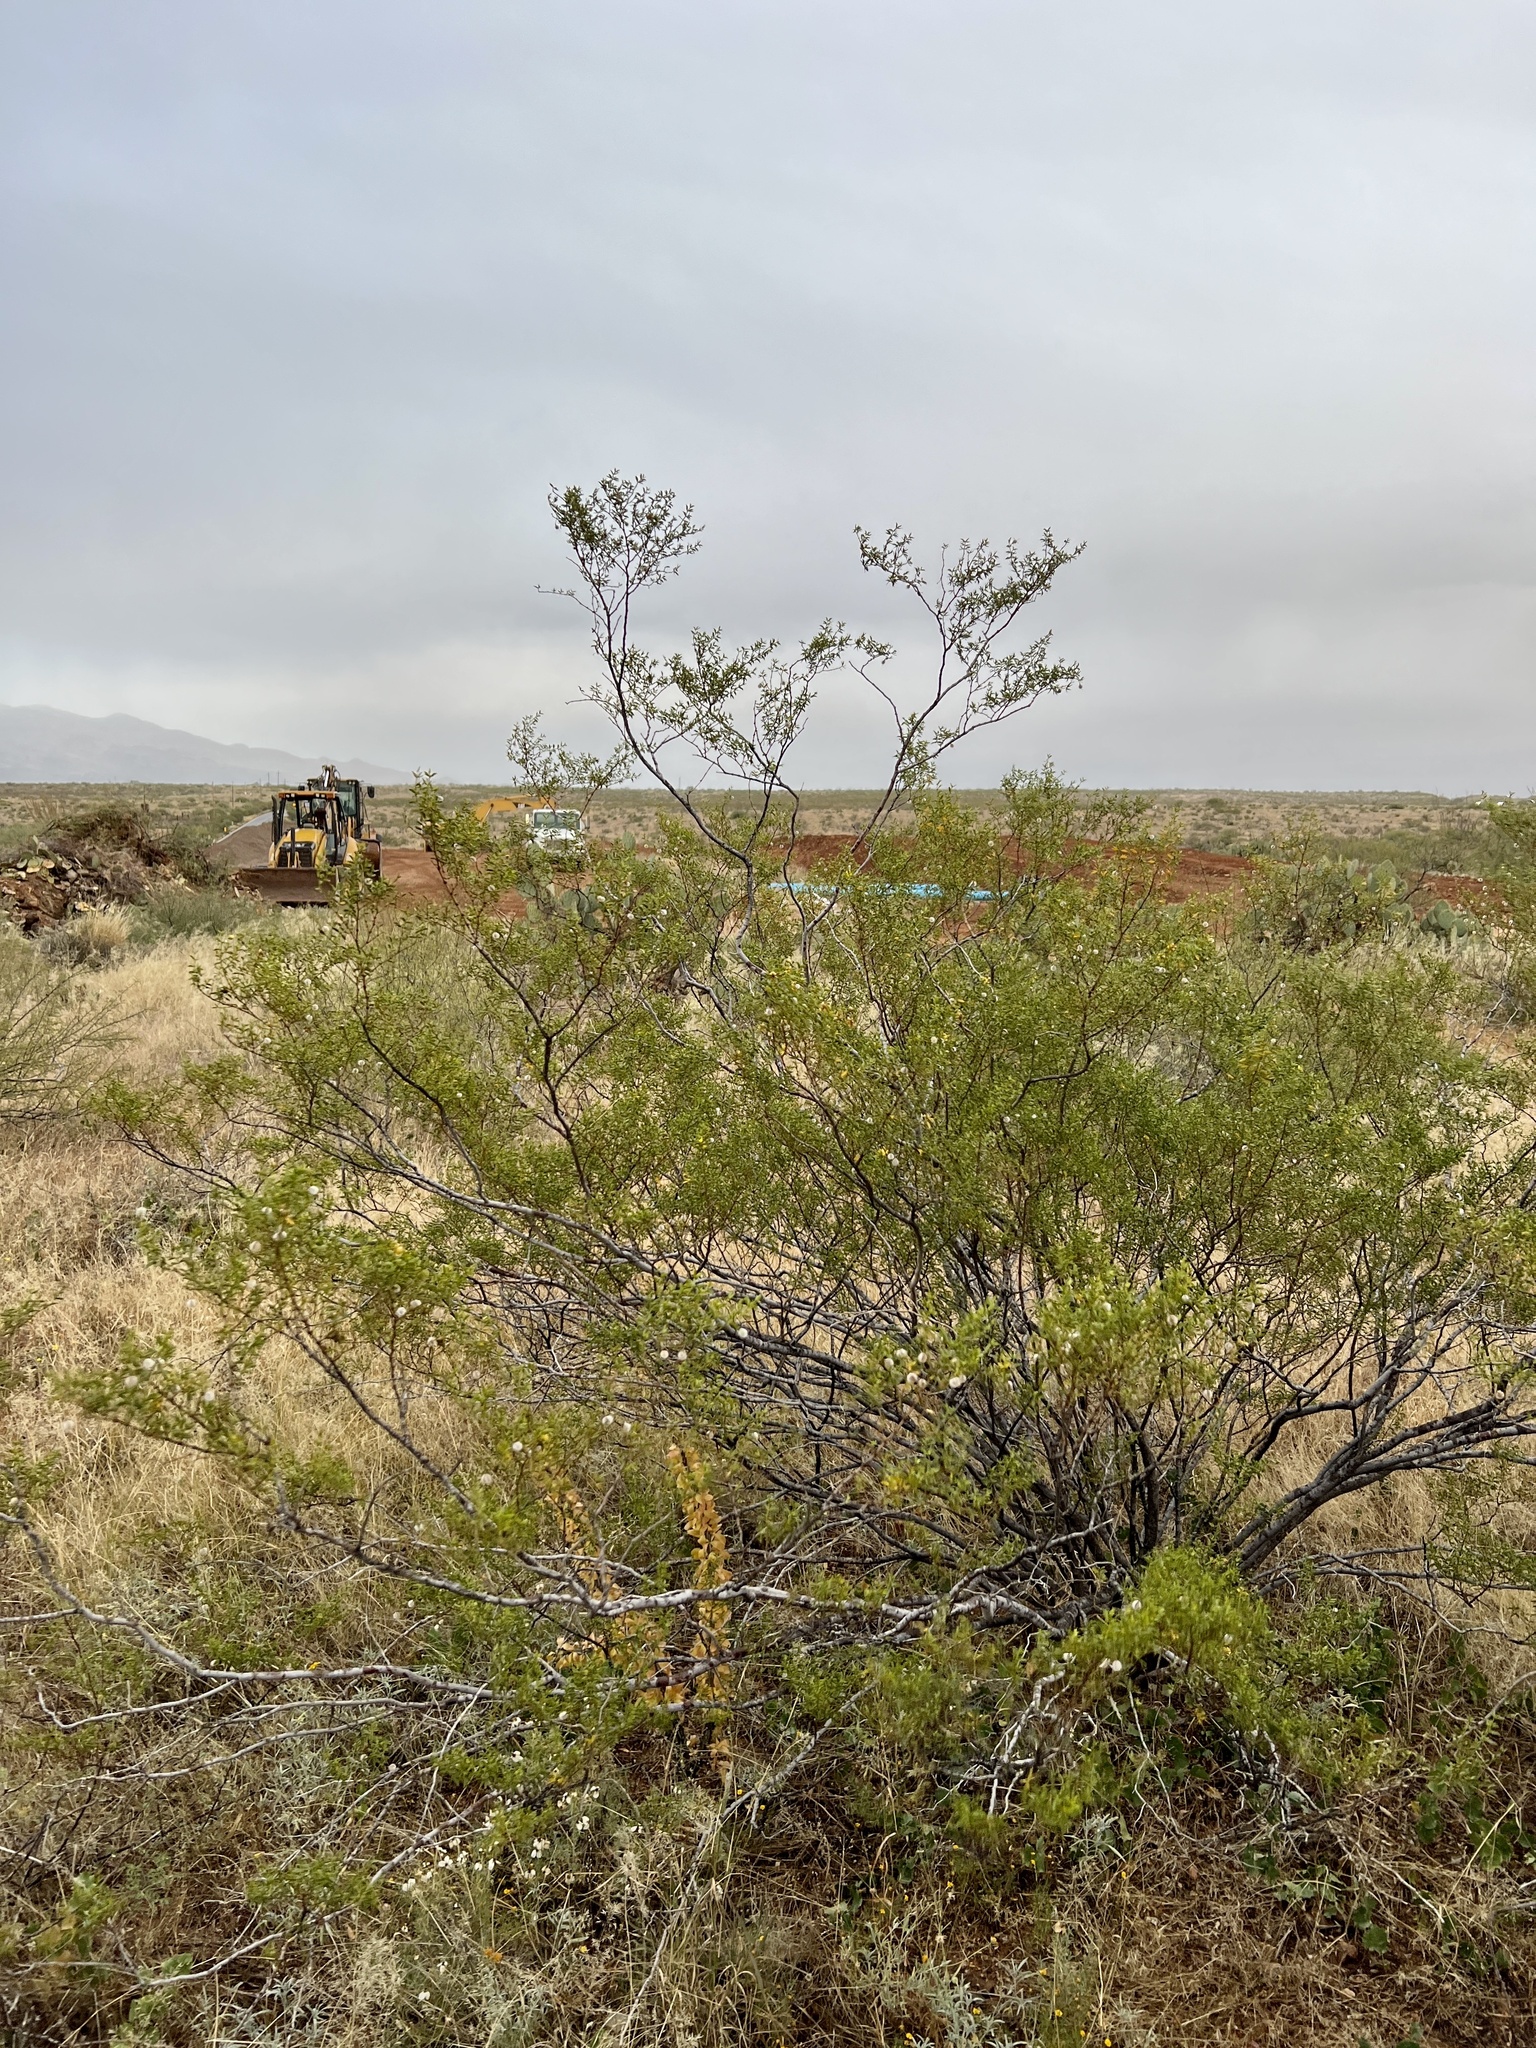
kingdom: Plantae
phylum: Tracheophyta
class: Magnoliopsida
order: Zygophyllales
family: Zygophyllaceae
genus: Larrea
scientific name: Larrea tridentata
